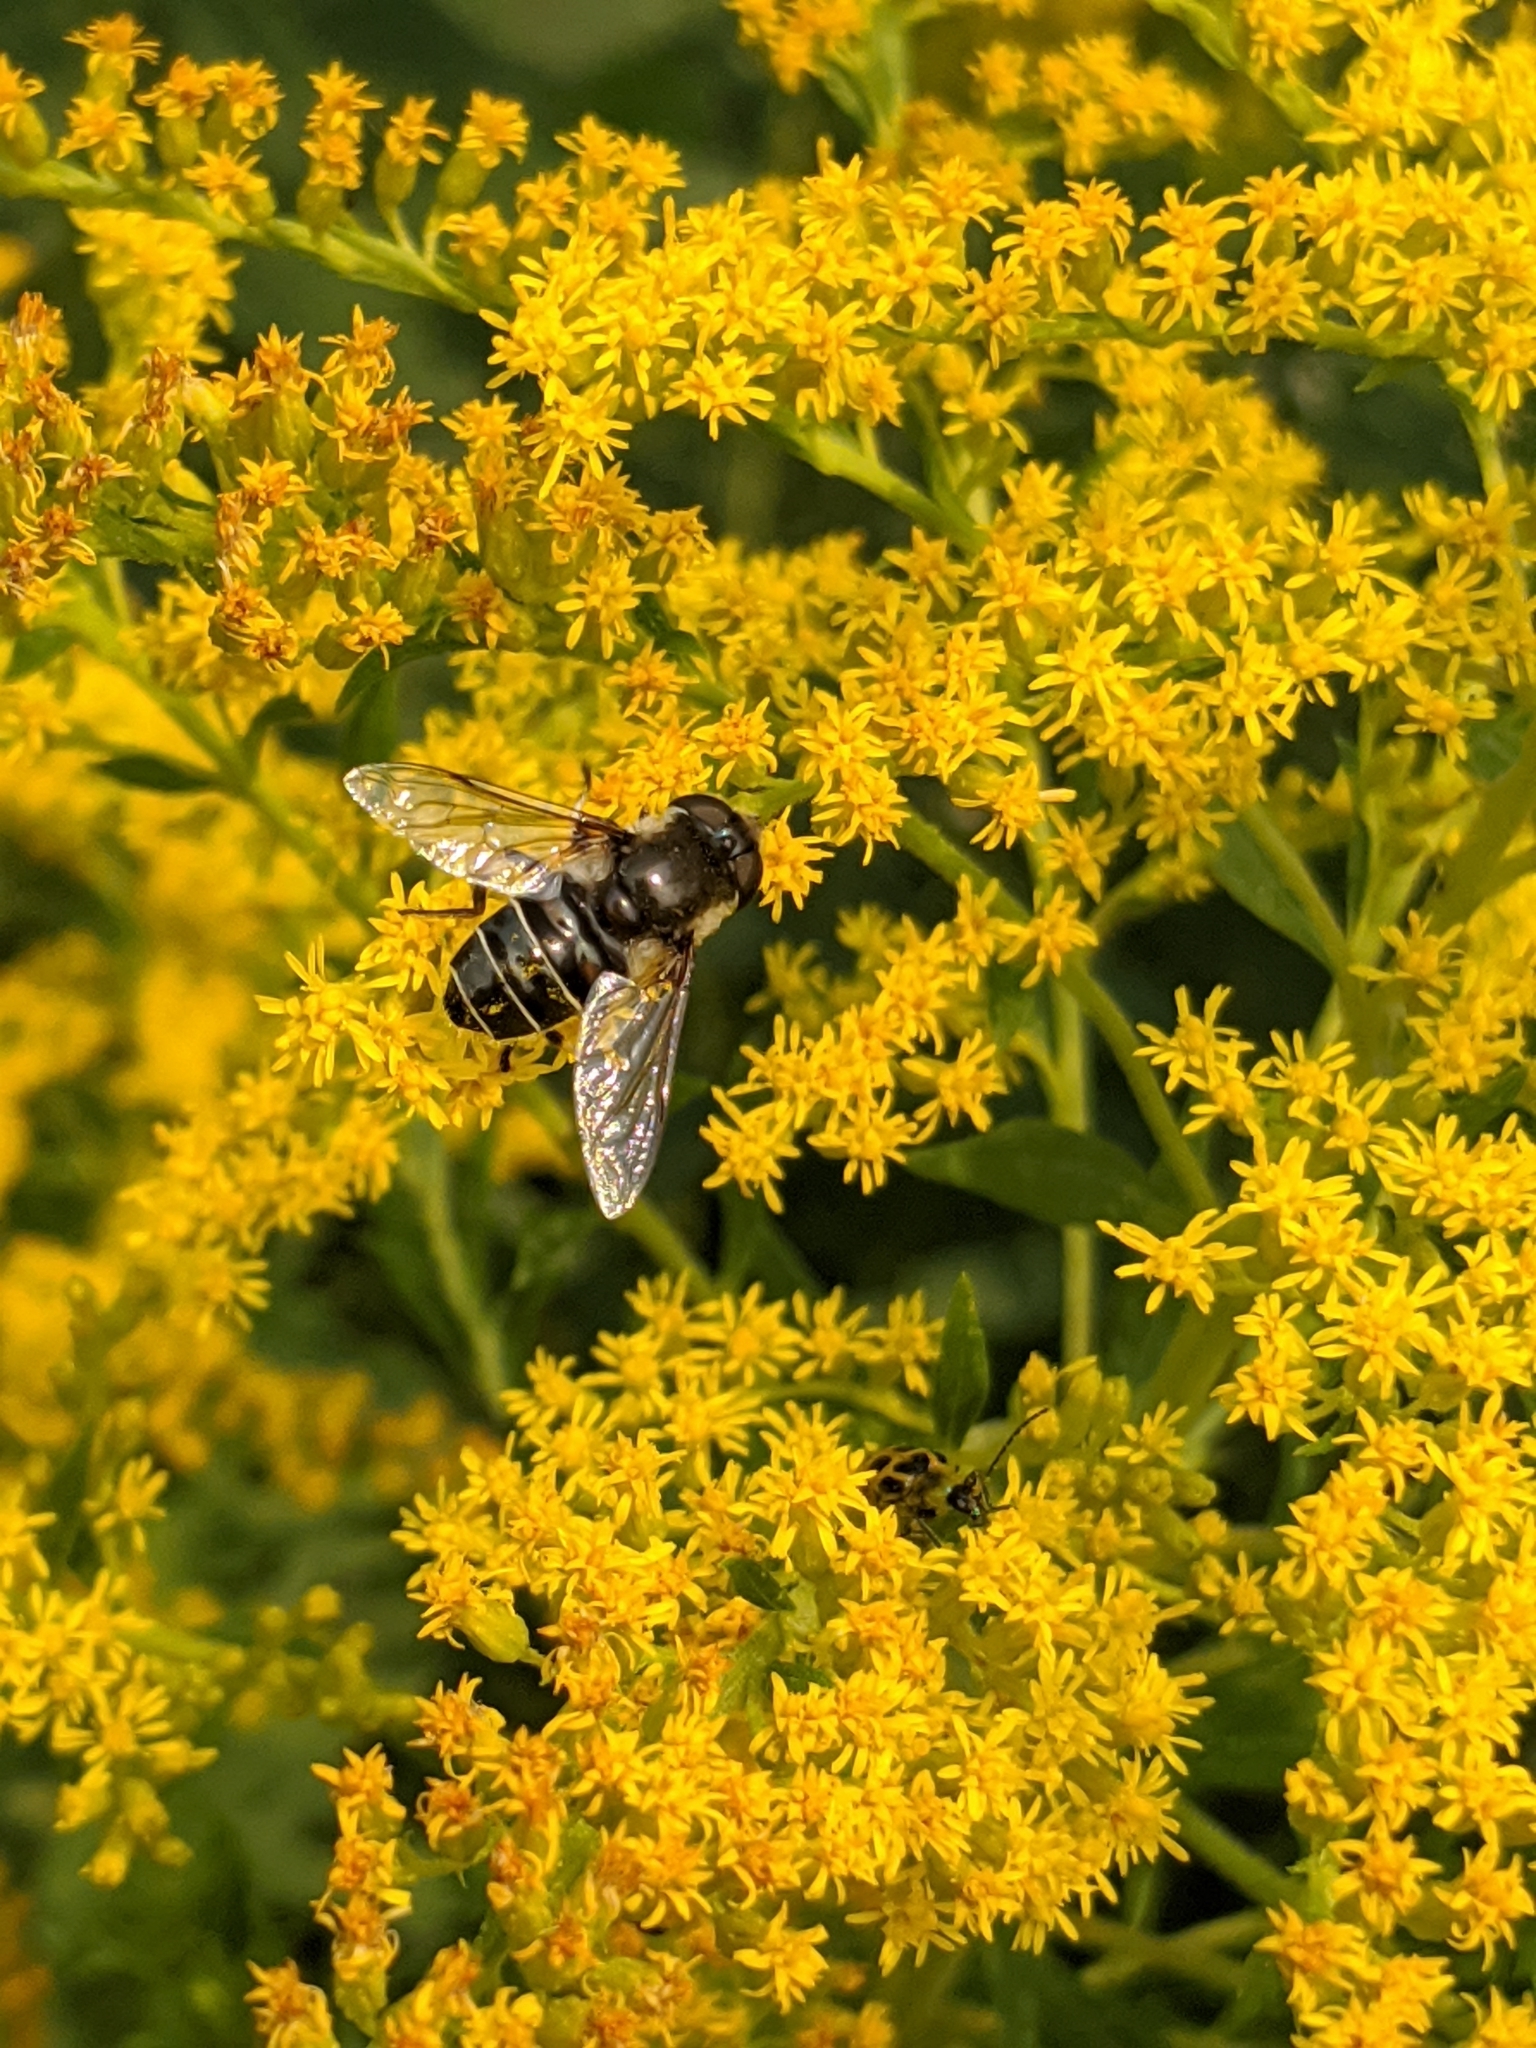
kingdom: Animalia
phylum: Arthropoda
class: Insecta
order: Diptera
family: Syrphidae
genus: Eristalis
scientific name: Eristalis dimidiata
